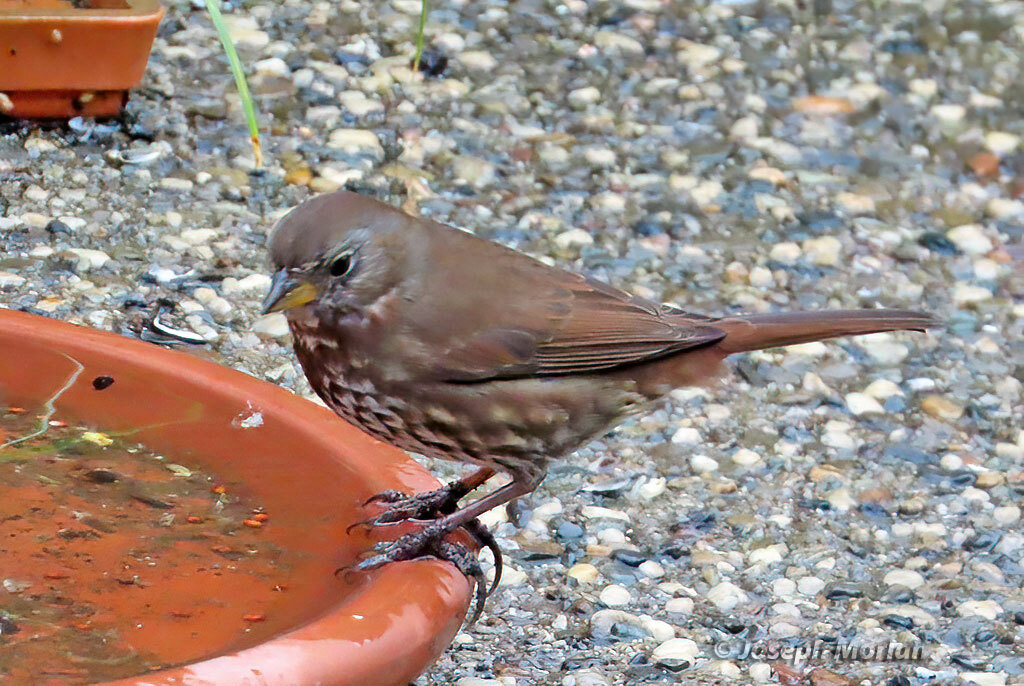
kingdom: Animalia
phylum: Chordata
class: Aves
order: Passeriformes
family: Passerellidae
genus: Passerella
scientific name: Passerella iliaca
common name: Fox sparrow
